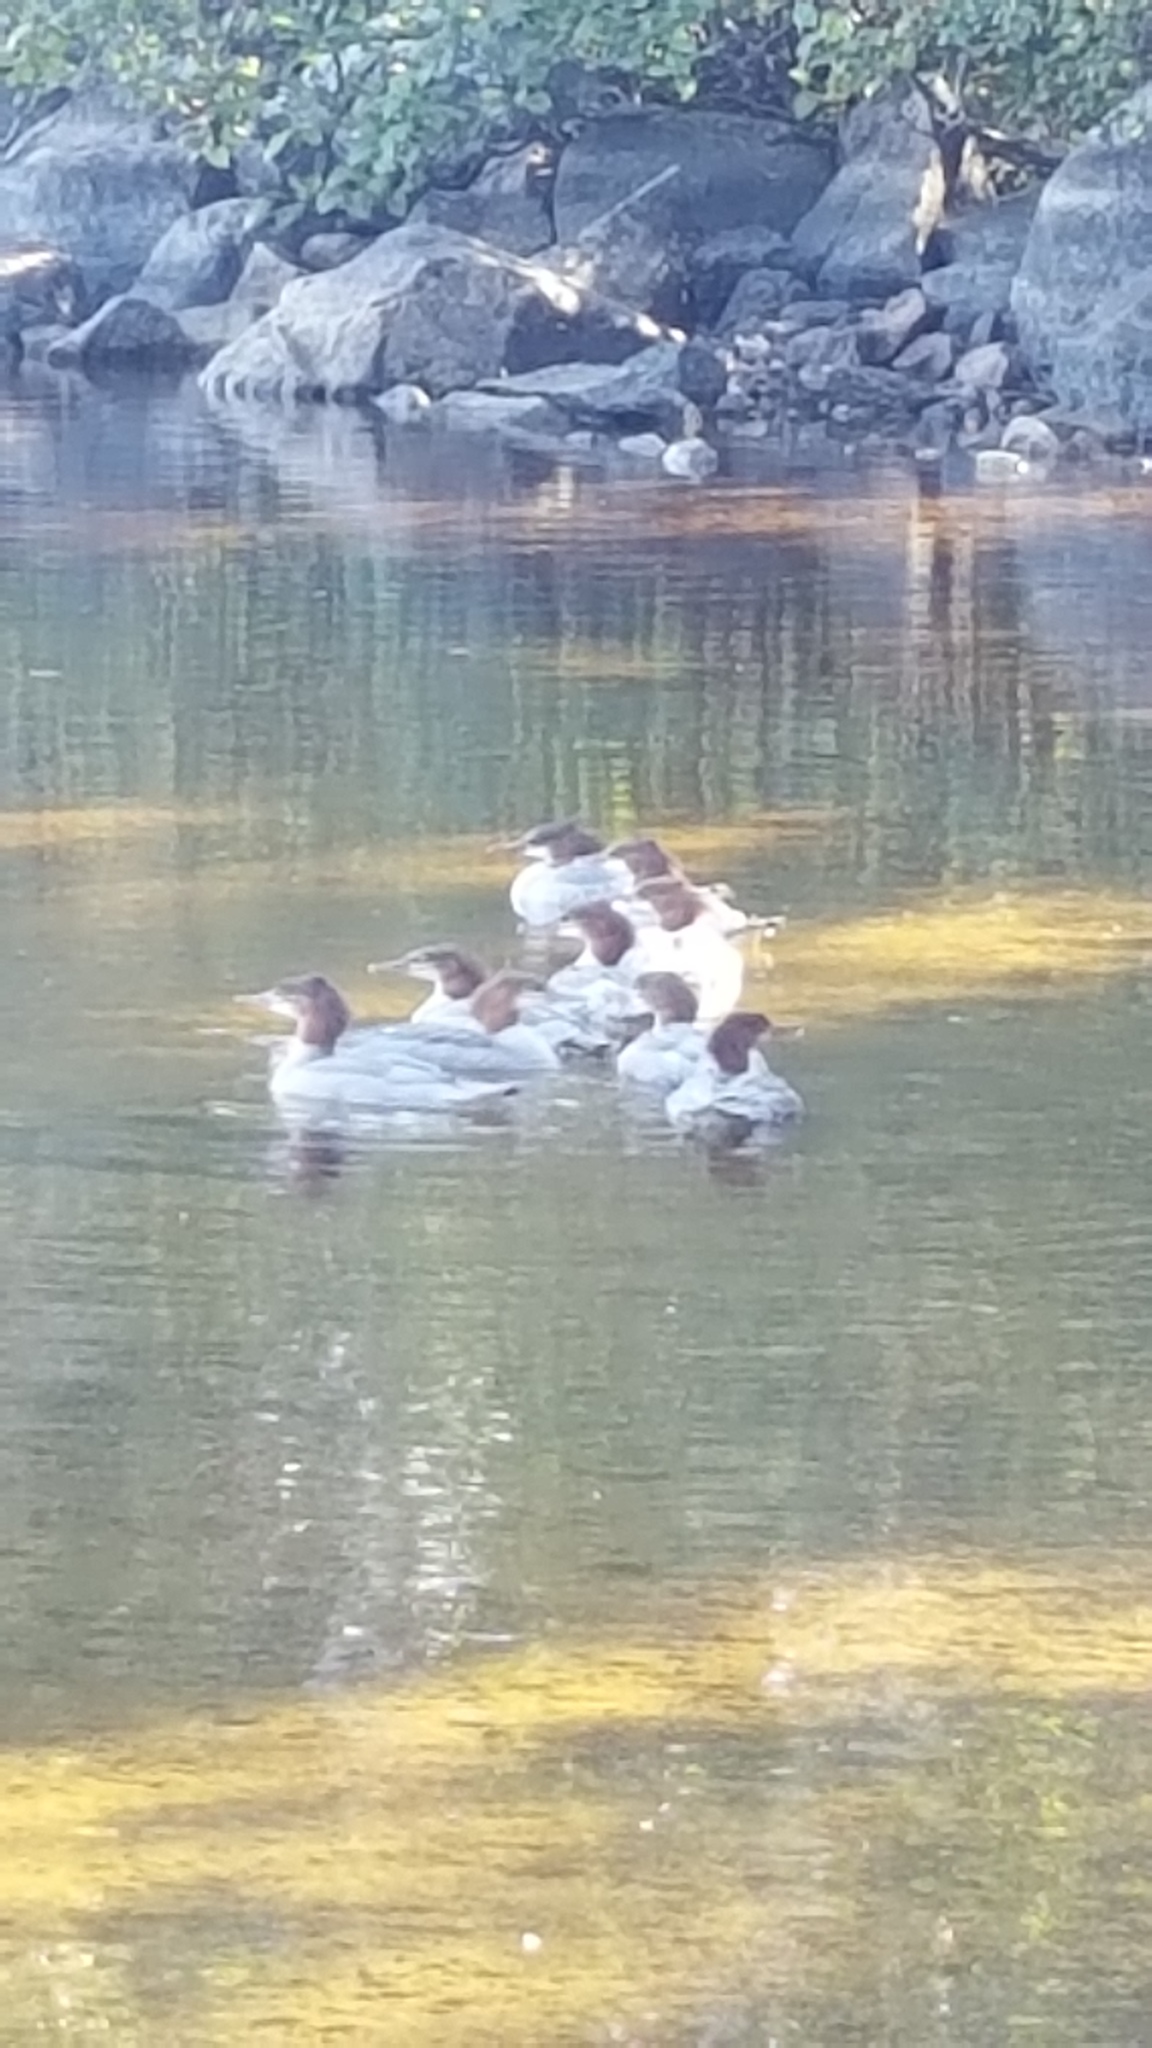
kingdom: Animalia
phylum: Chordata
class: Aves
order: Anseriformes
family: Anatidae
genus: Mergus
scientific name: Mergus merganser
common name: Common merganser
